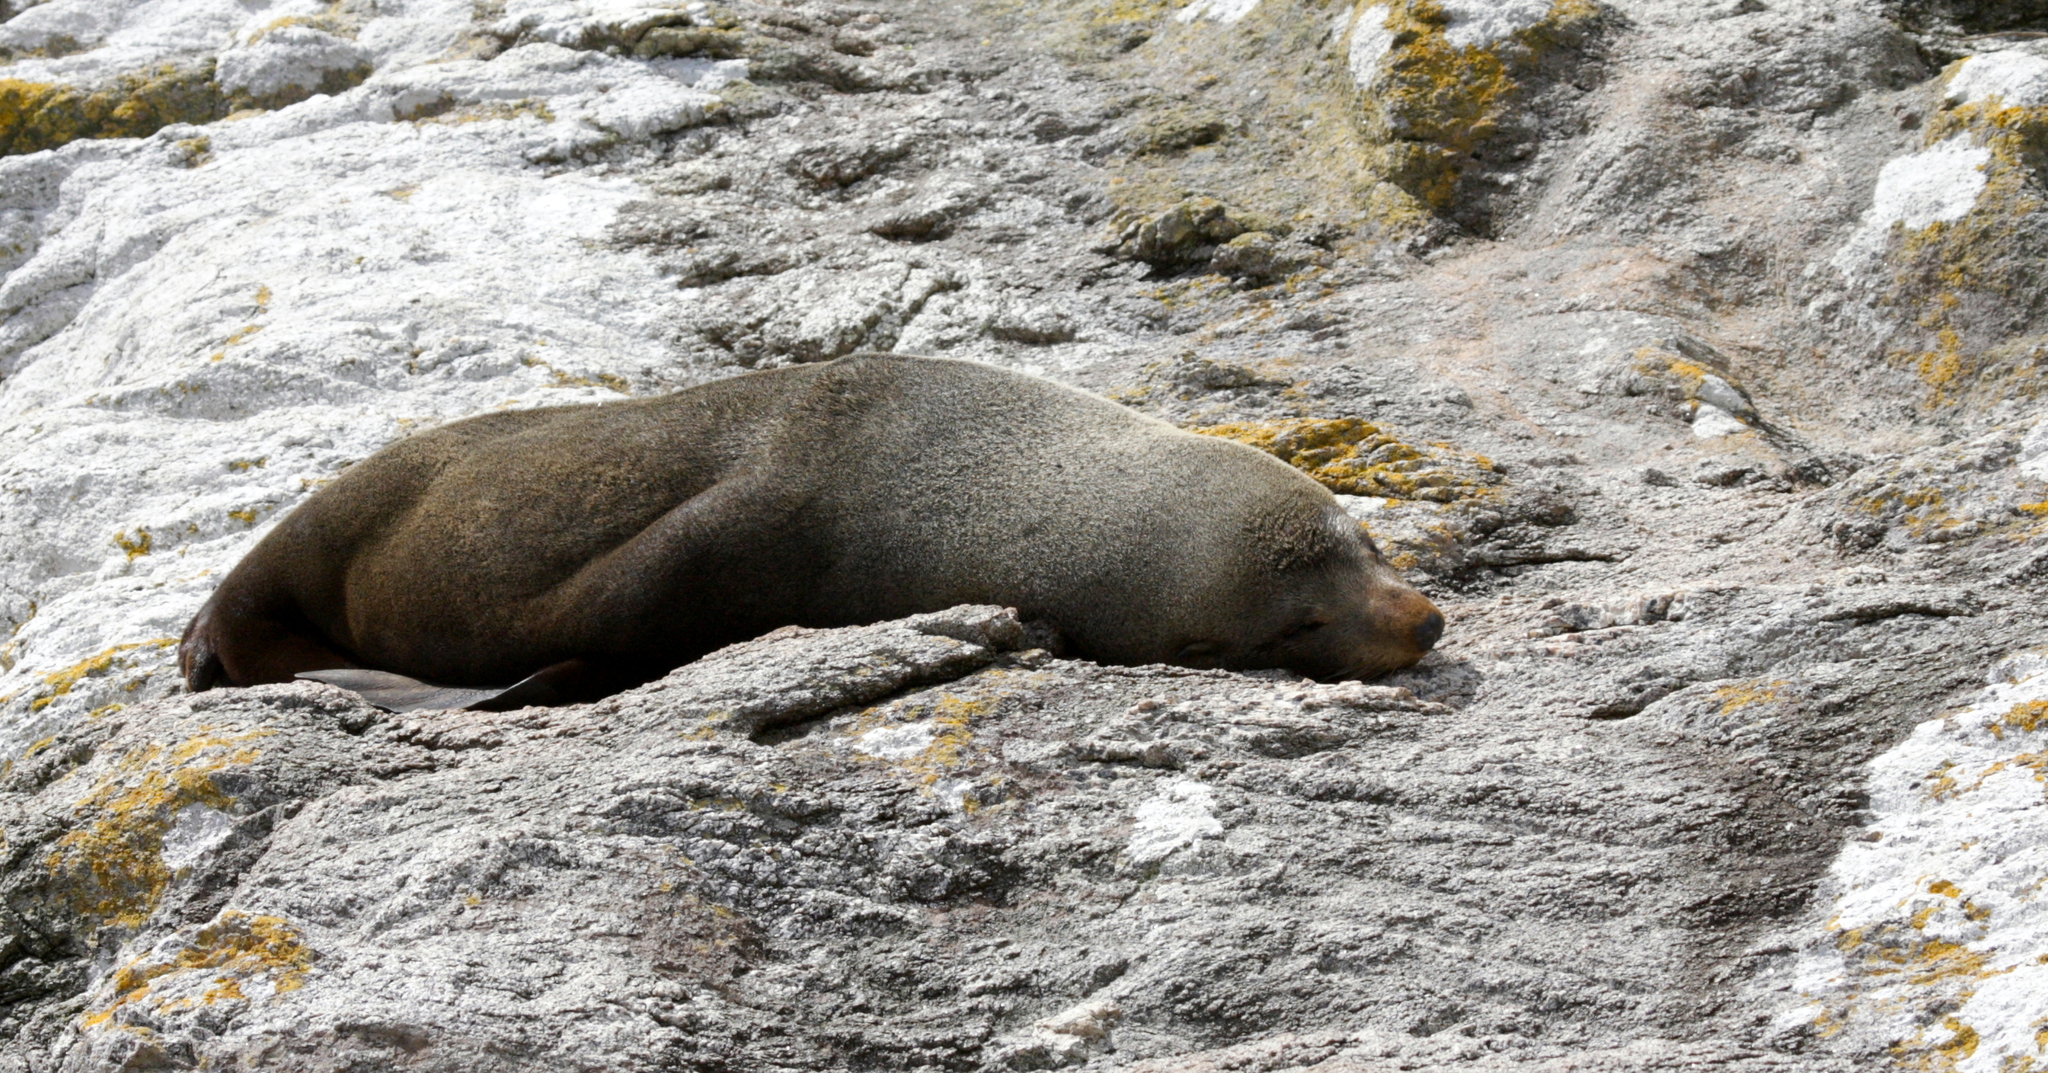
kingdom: Animalia
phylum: Chordata
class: Mammalia
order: Carnivora
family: Otariidae
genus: Arctocephalus
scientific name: Arctocephalus forsteri
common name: New zealand fur seal
